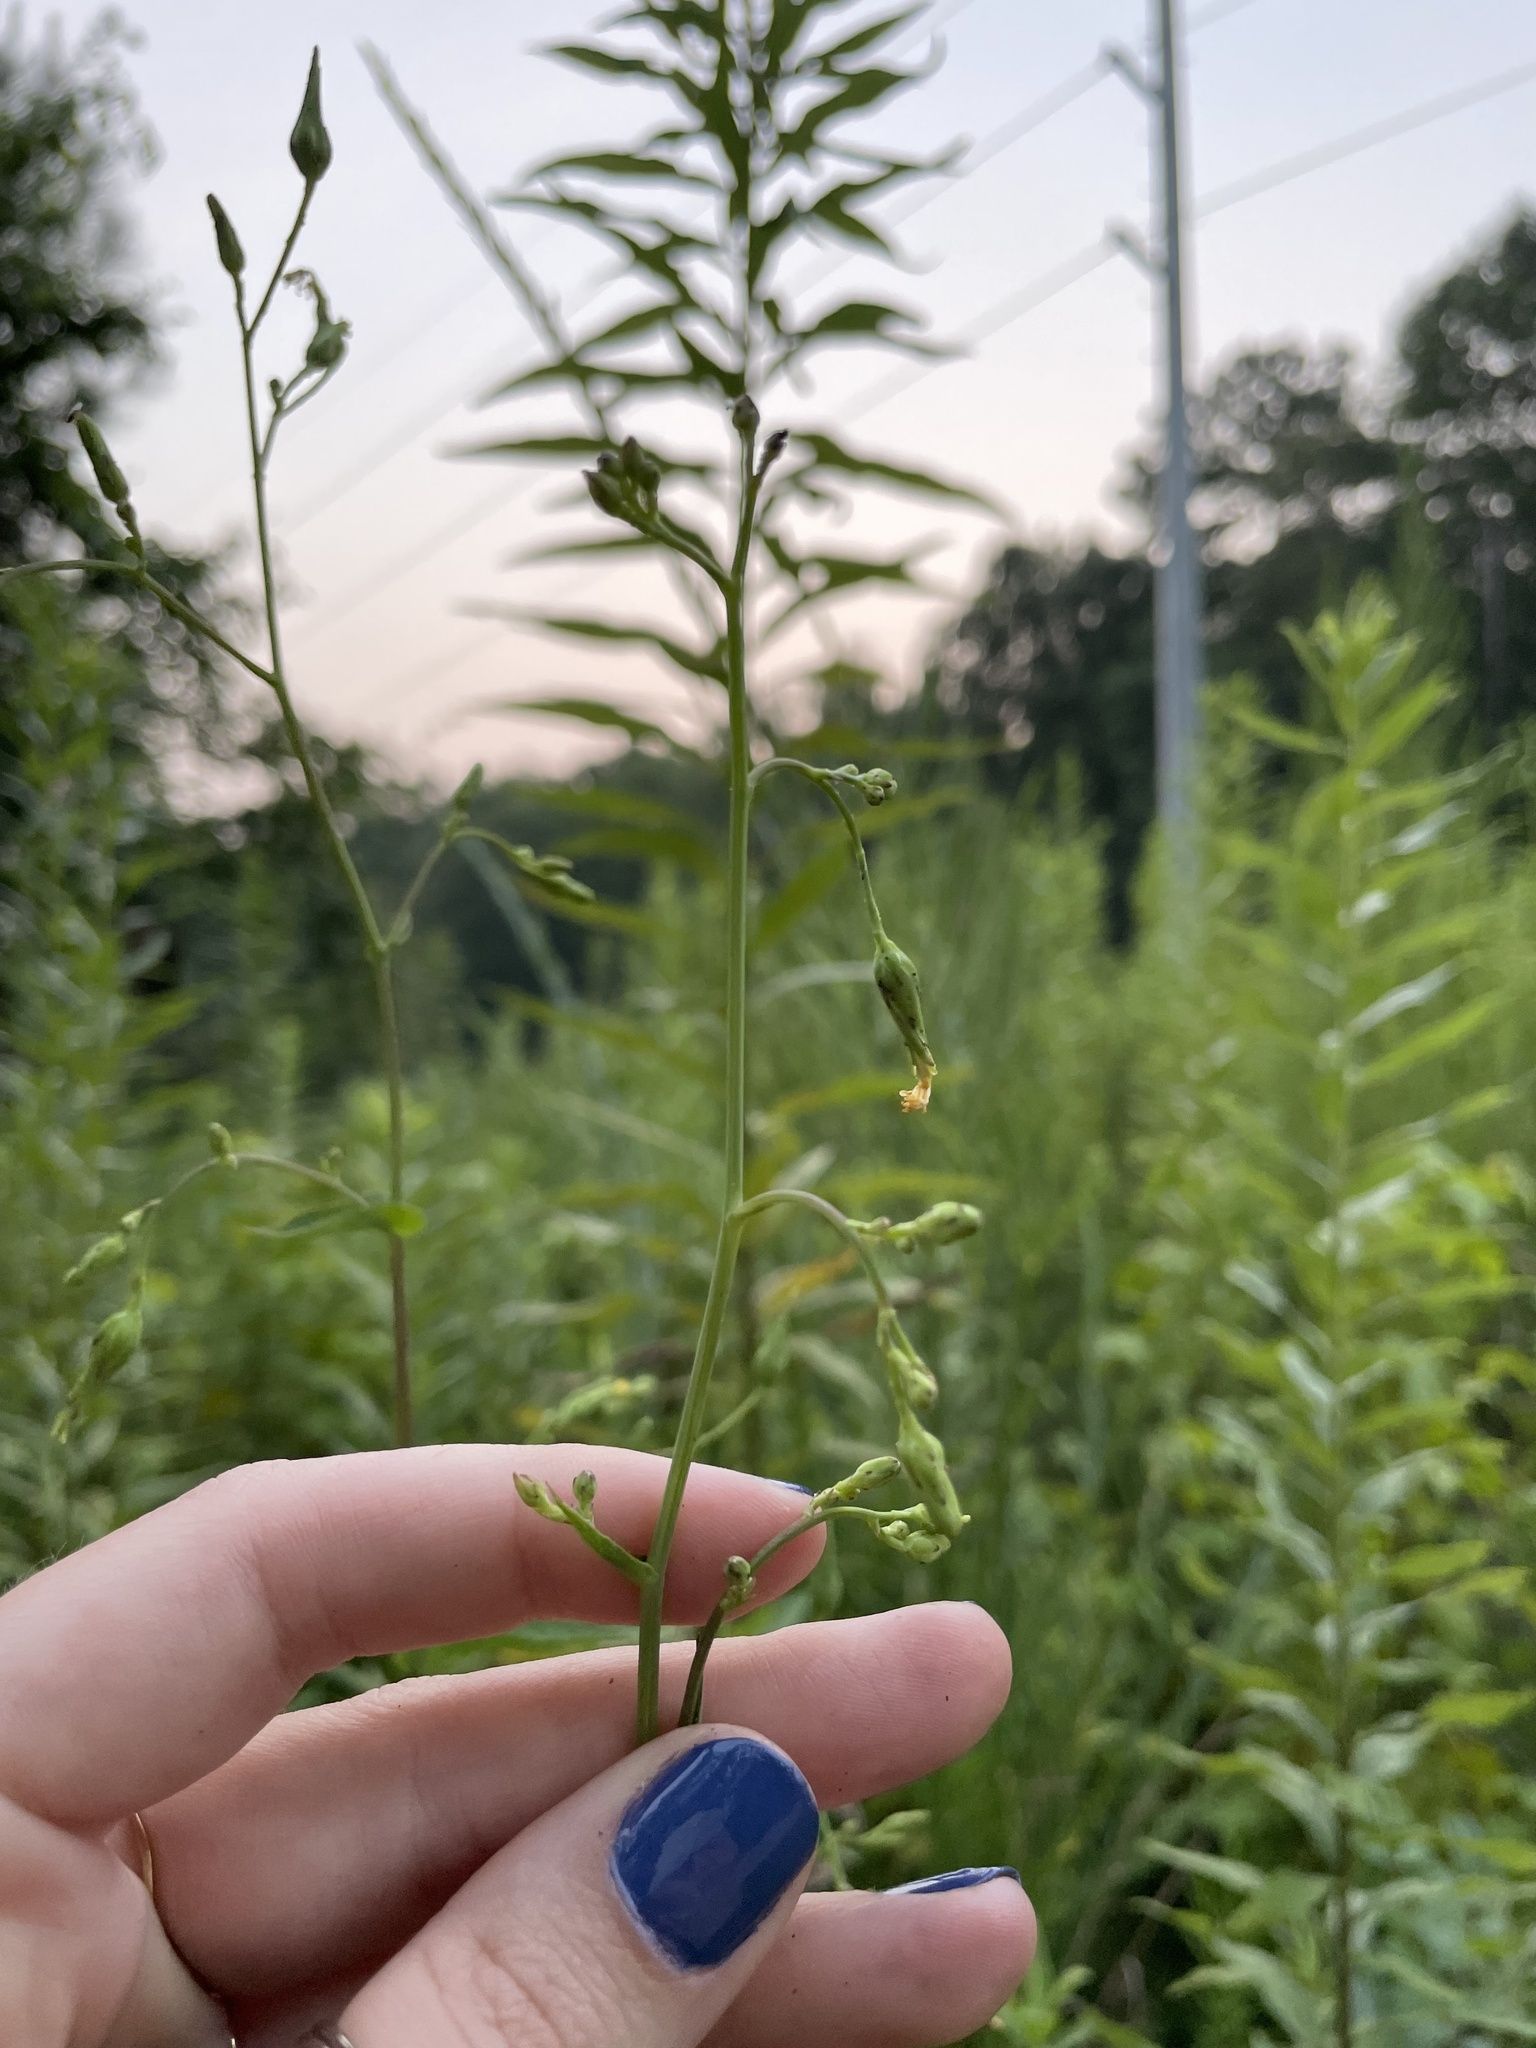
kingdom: Plantae
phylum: Tracheophyta
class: Magnoliopsida
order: Asterales
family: Asteraceae
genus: Lactuca
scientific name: Lactuca canadensis
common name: Canada lettuce
